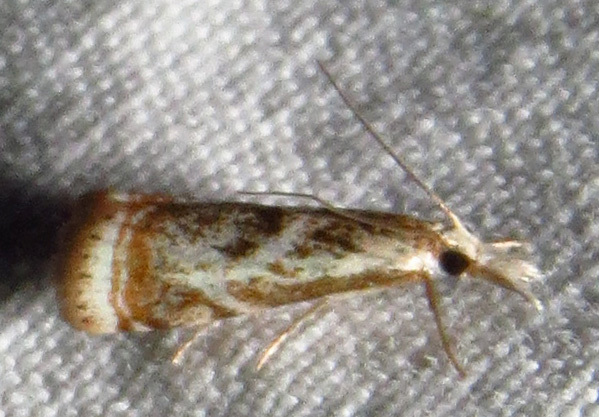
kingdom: Animalia
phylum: Arthropoda
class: Insecta
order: Lepidoptera
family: Crambidae
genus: Microcrambus
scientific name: Microcrambus elegans
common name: Elegant grass-veneer
